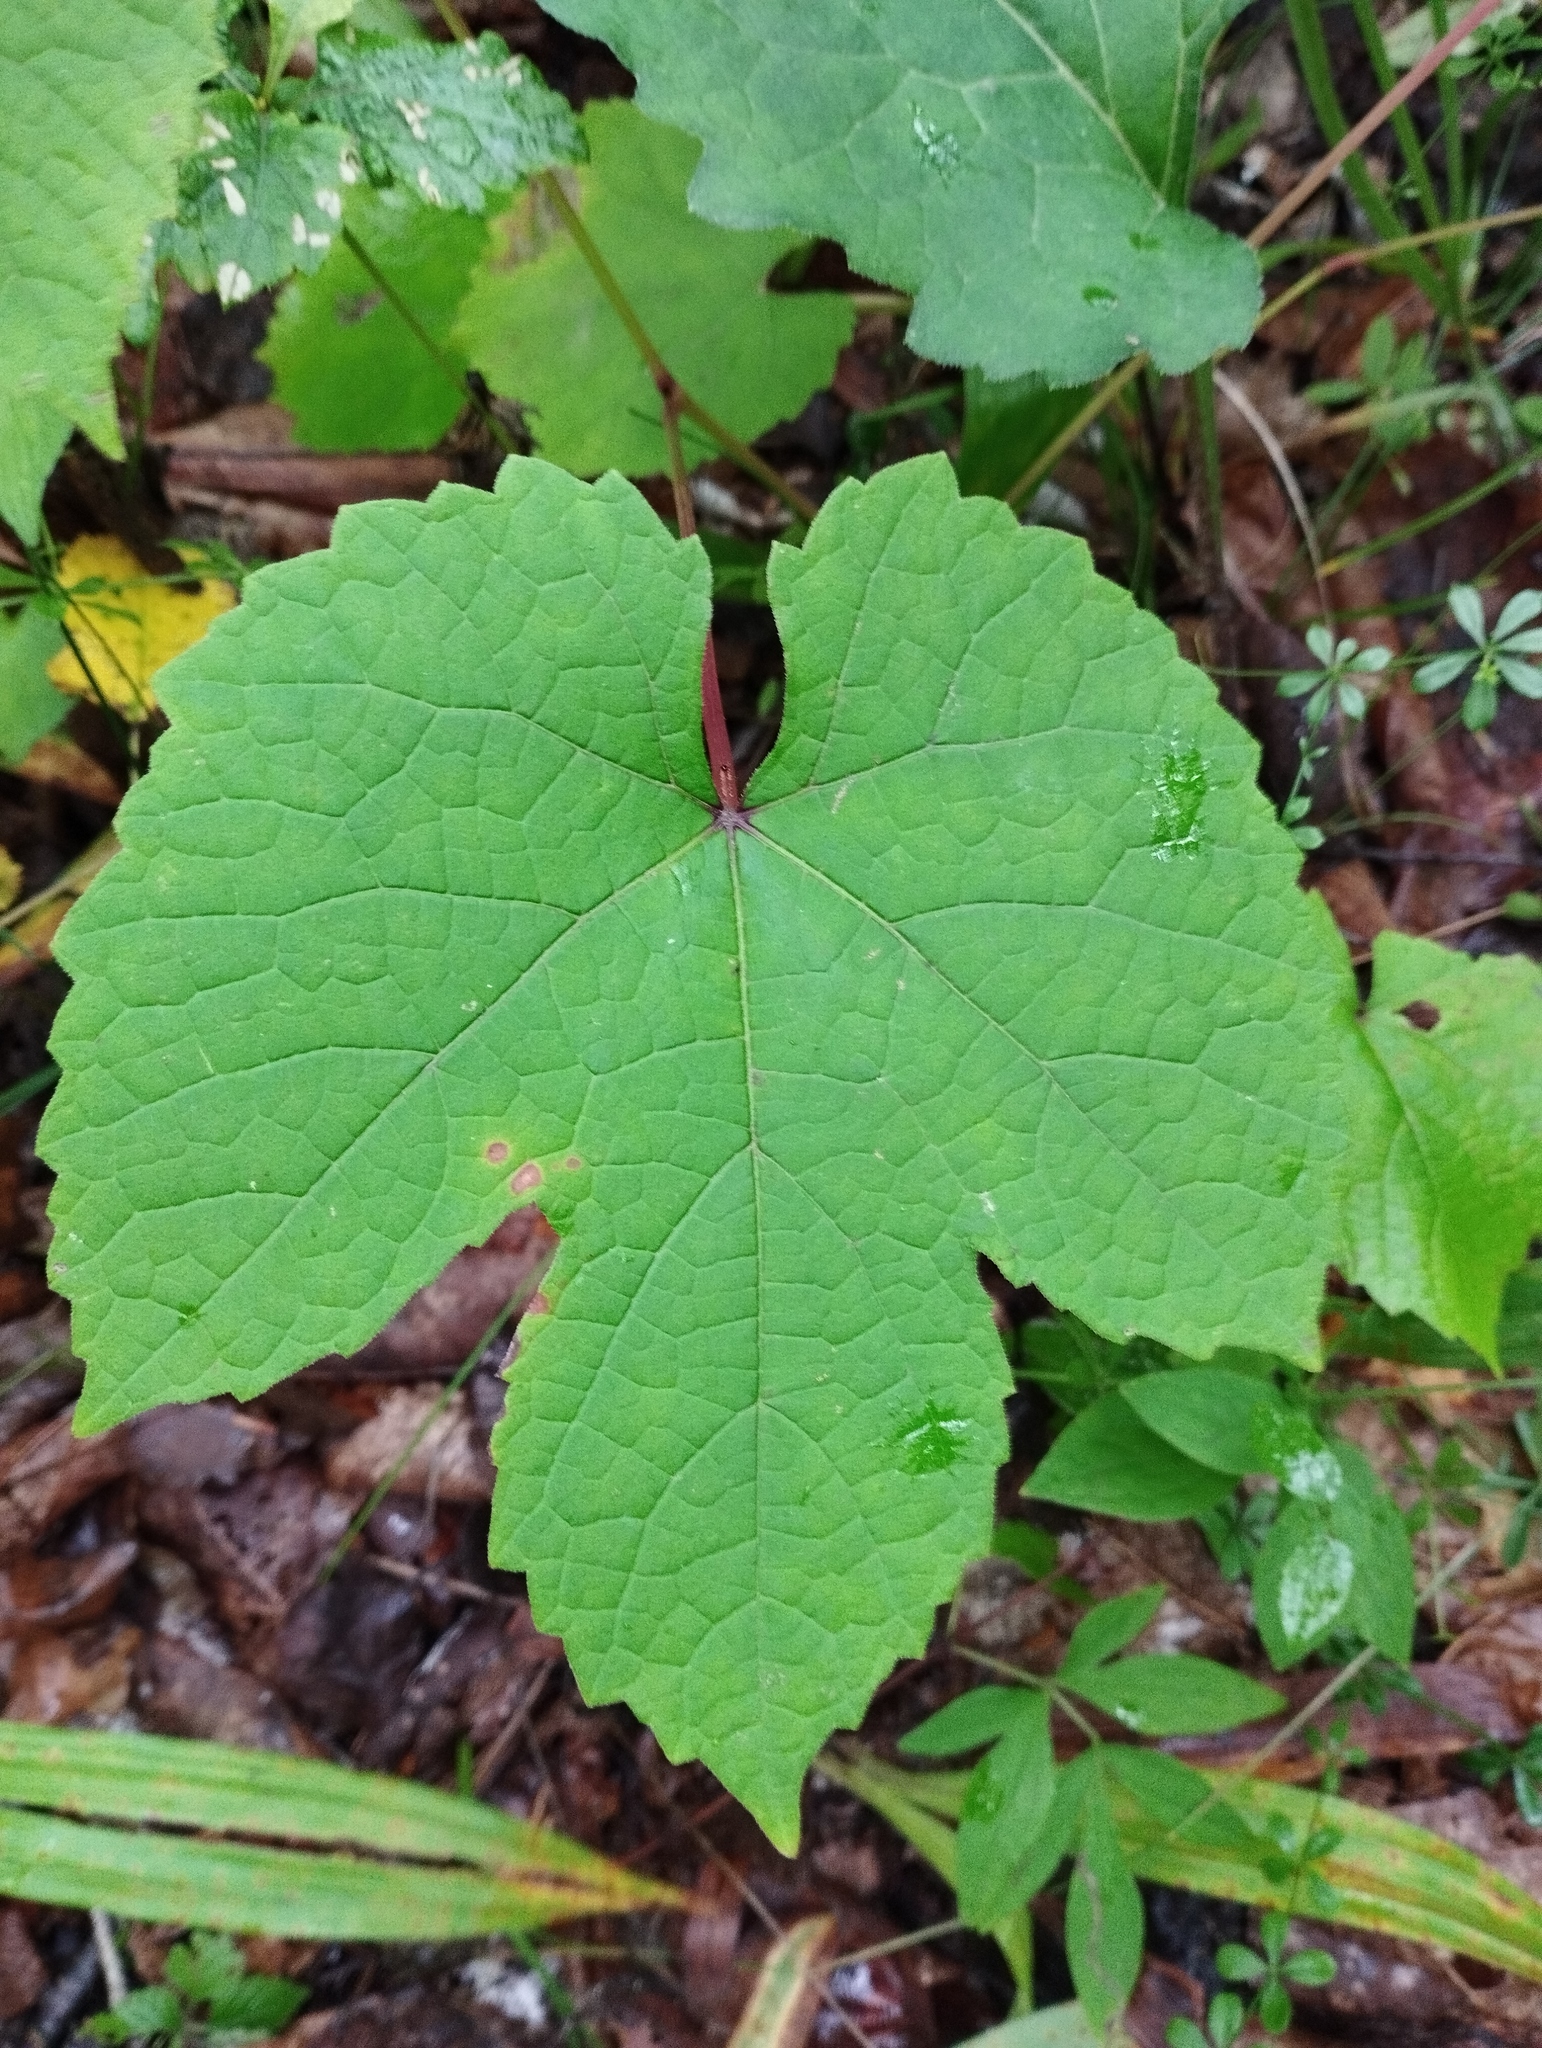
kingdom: Plantae
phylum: Tracheophyta
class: Magnoliopsida
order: Vitales
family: Vitaceae
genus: Vitis
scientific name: Vitis amurensis
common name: Amur grape
